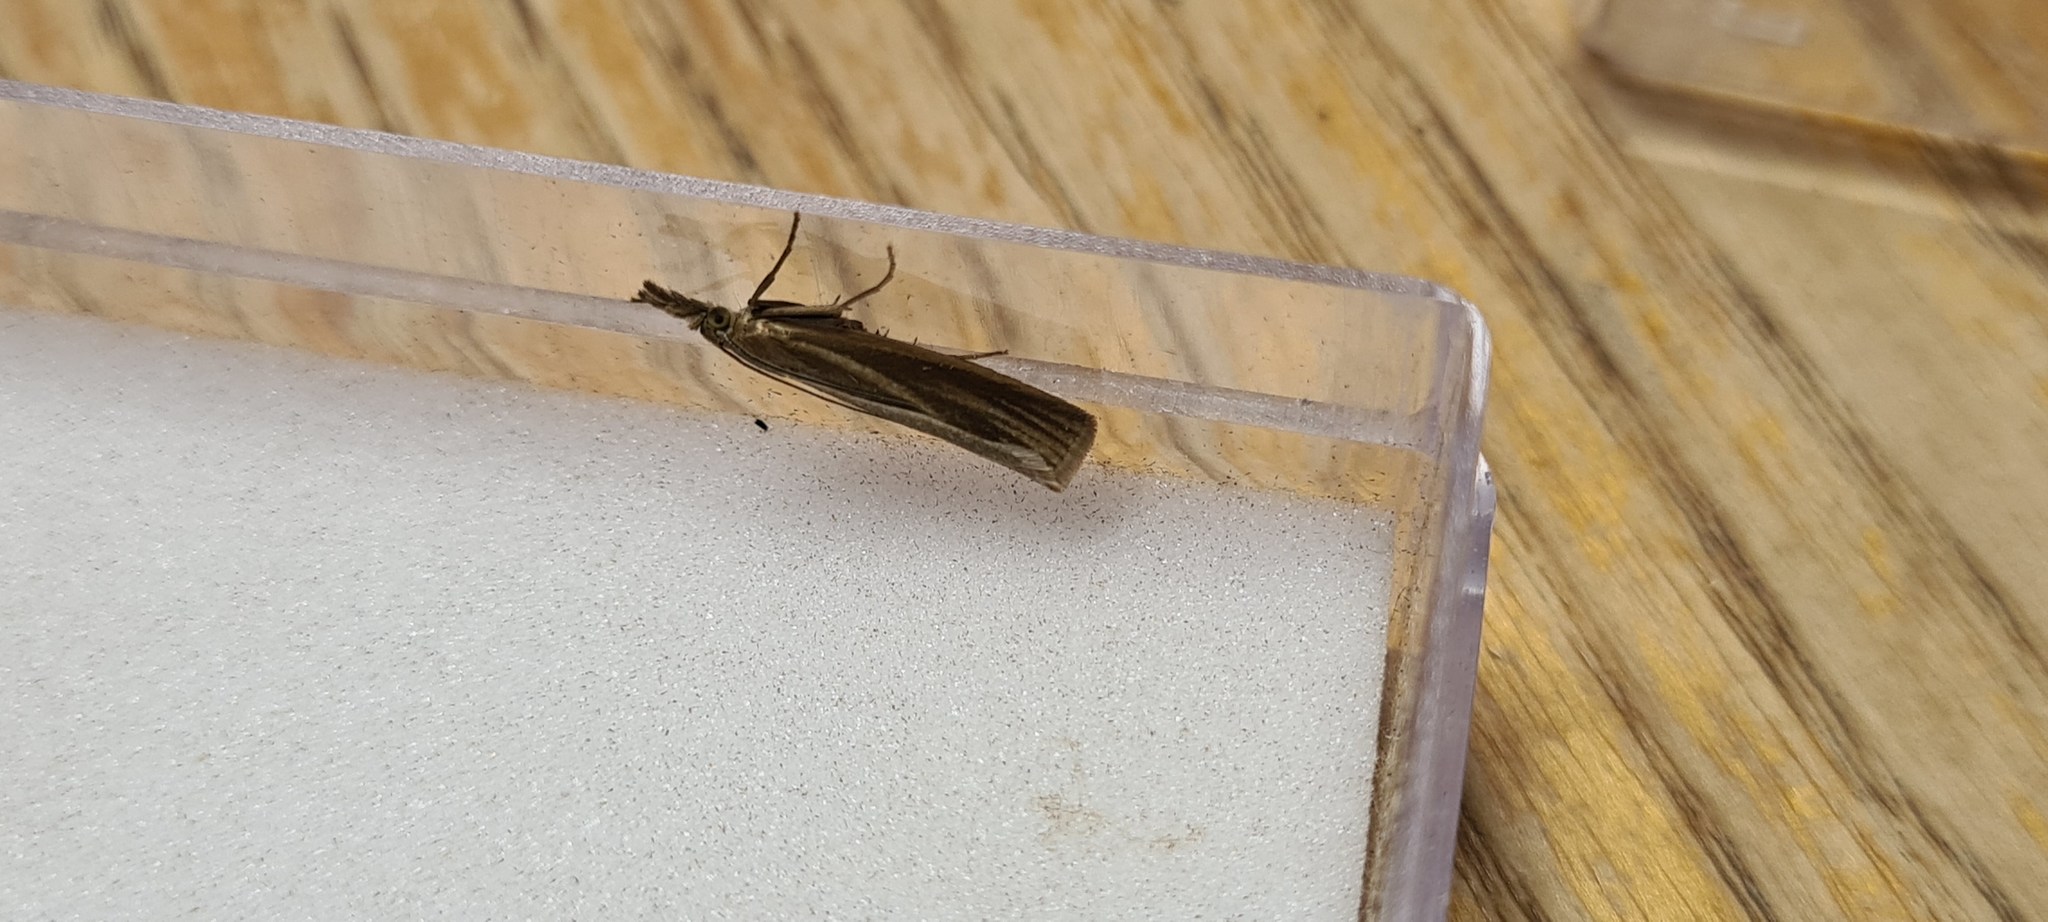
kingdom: Animalia
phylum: Arthropoda
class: Insecta
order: Lepidoptera
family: Crambidae
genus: Crambus
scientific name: Crambus perlellus
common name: Yellow satin veneer
